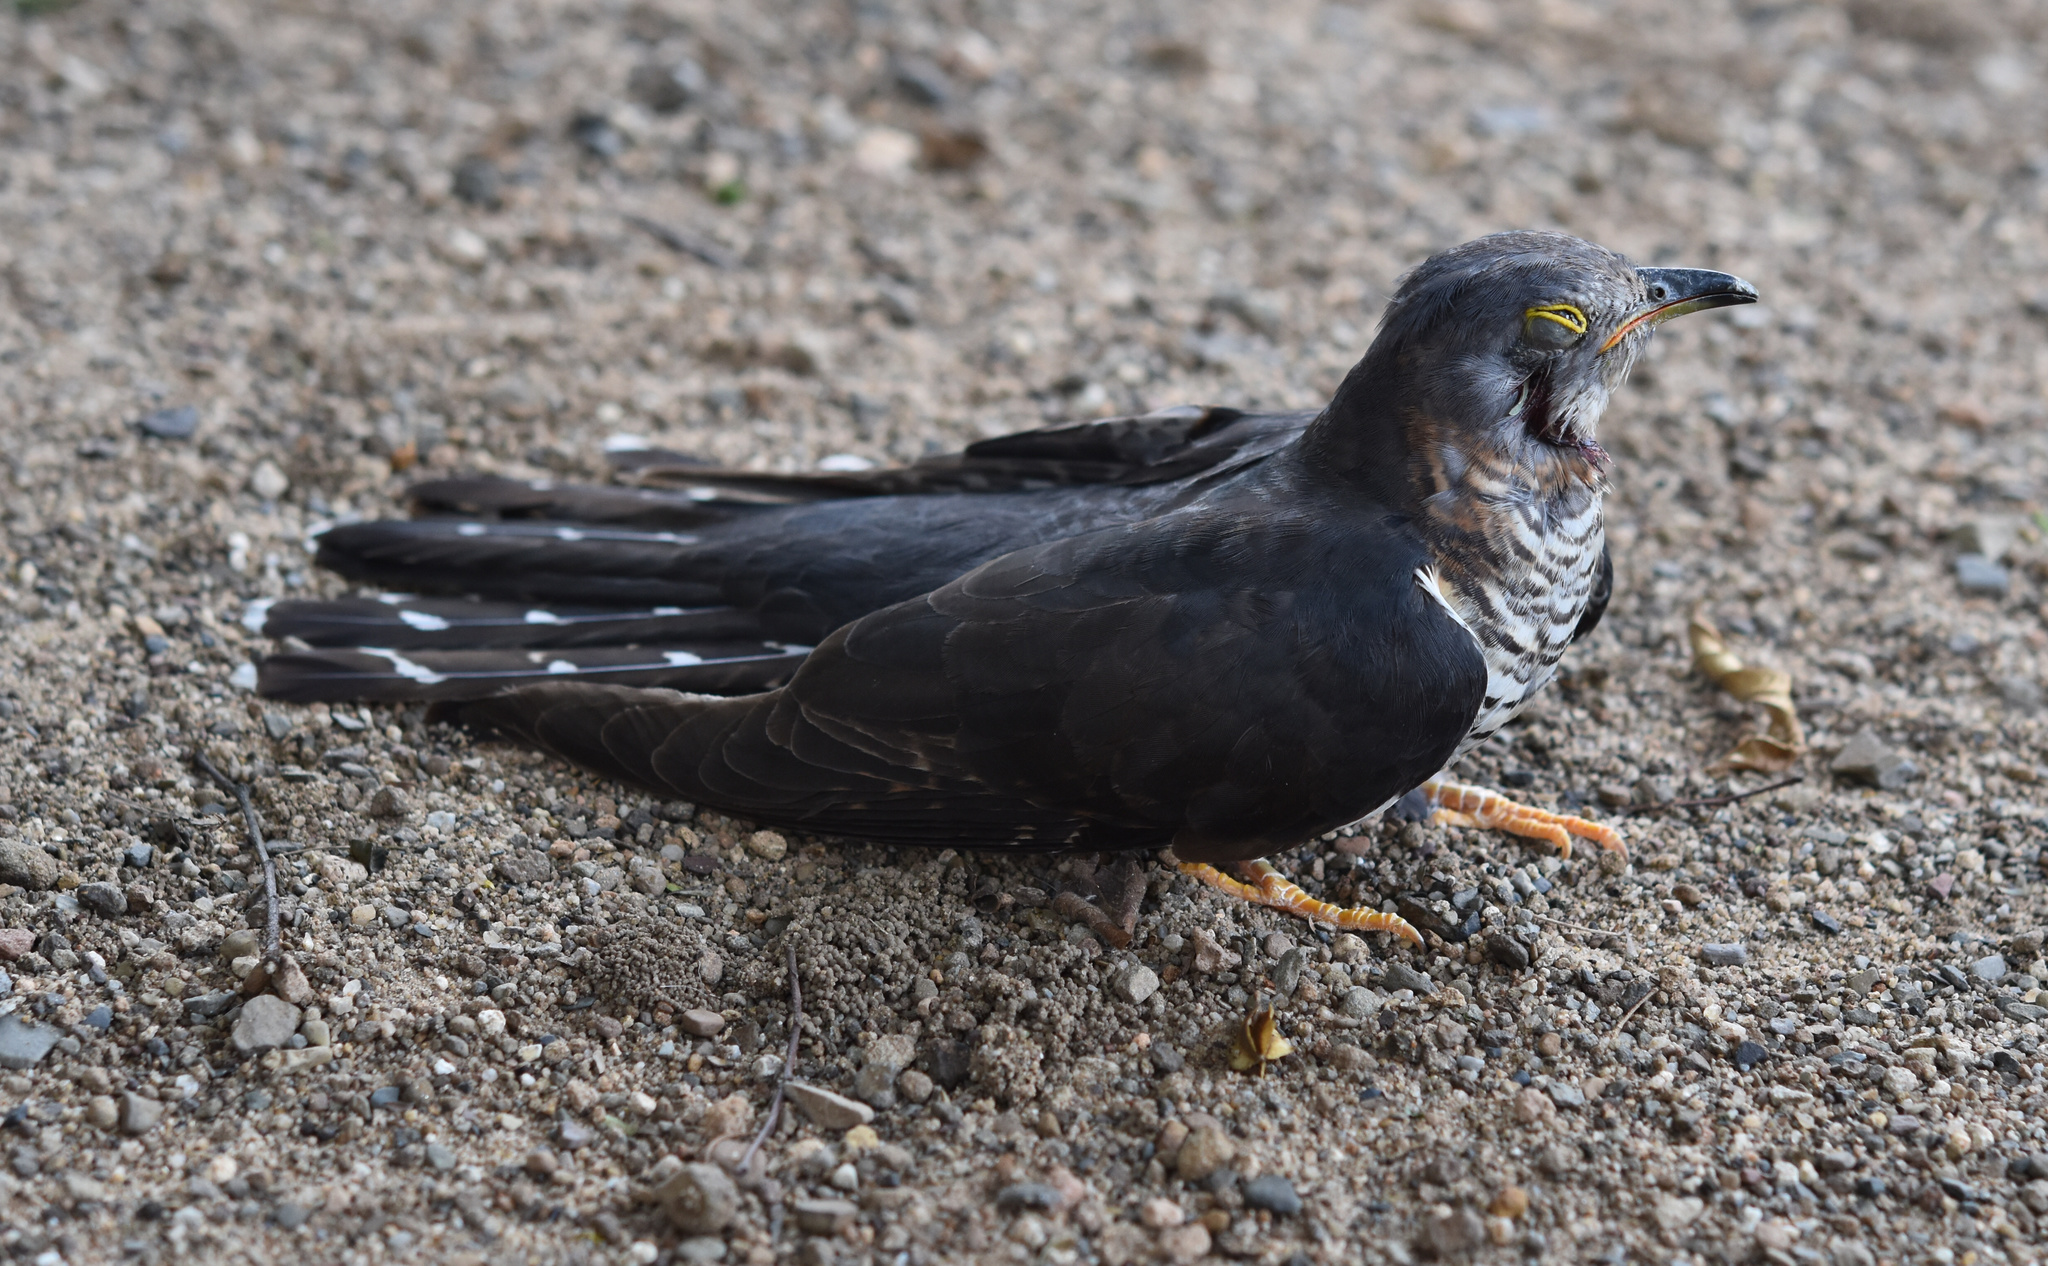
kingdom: Animalia
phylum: Chordata
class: Aves
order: Cuculiformes
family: Cuculidae
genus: Cuculus
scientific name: Cuculus solitarius
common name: Red-chested cuckoo
